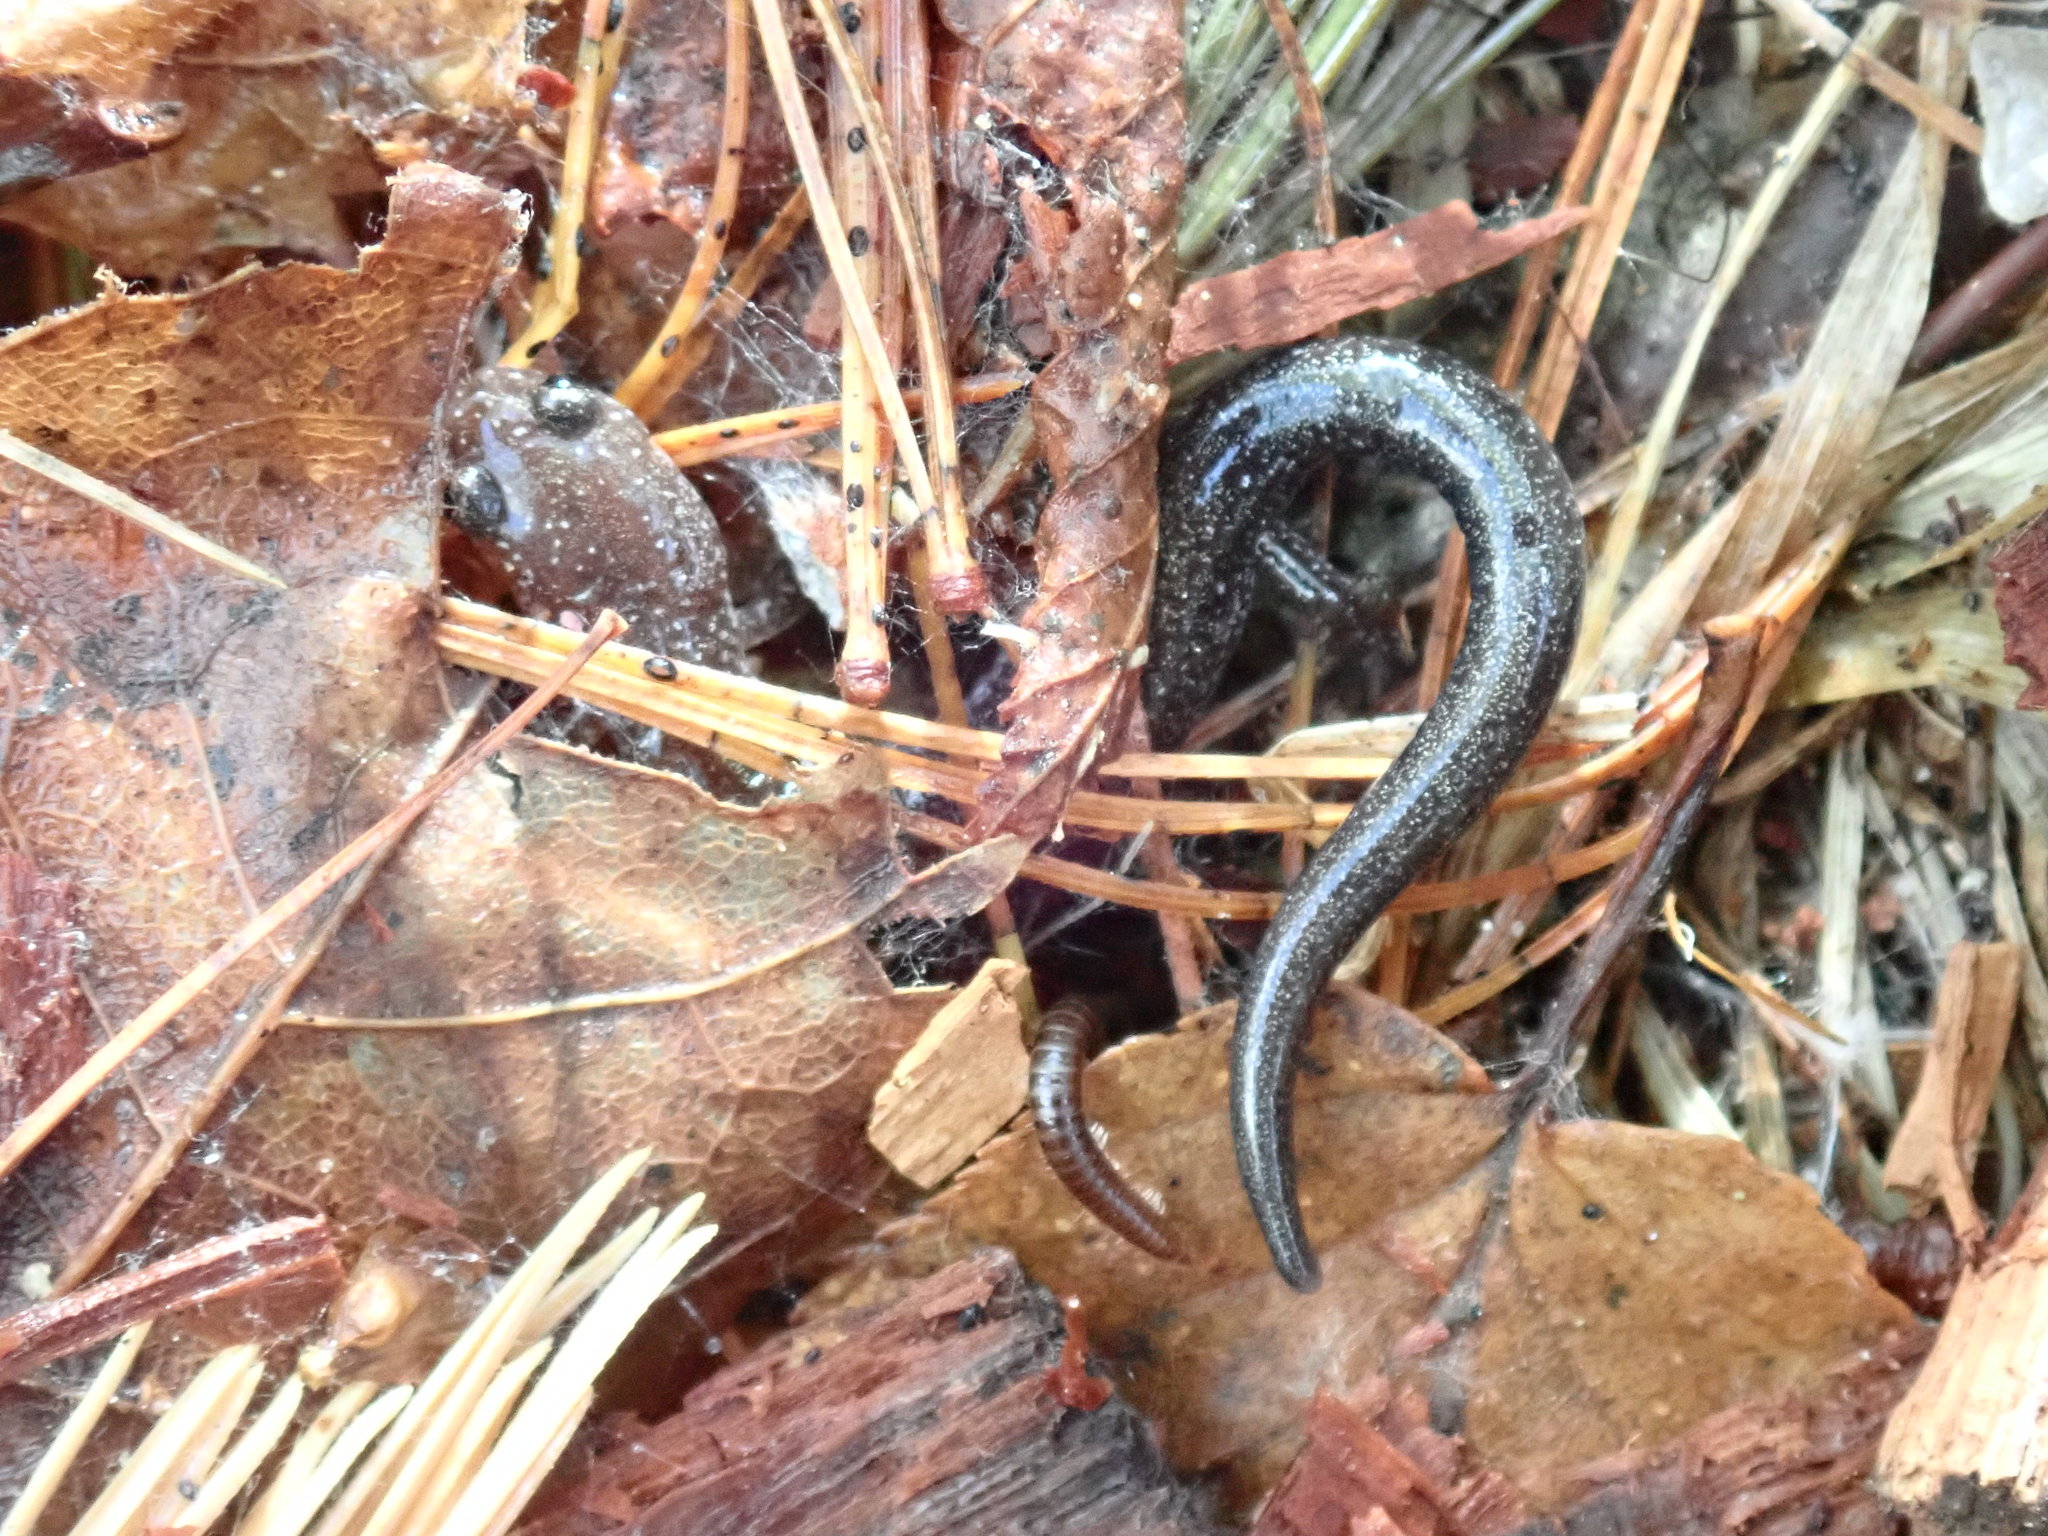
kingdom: Animalia
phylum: Chordata
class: Amphibia
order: Caudata
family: Plethodontidae
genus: Plethodon
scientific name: Plethodon cinereus
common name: Redback salamander
